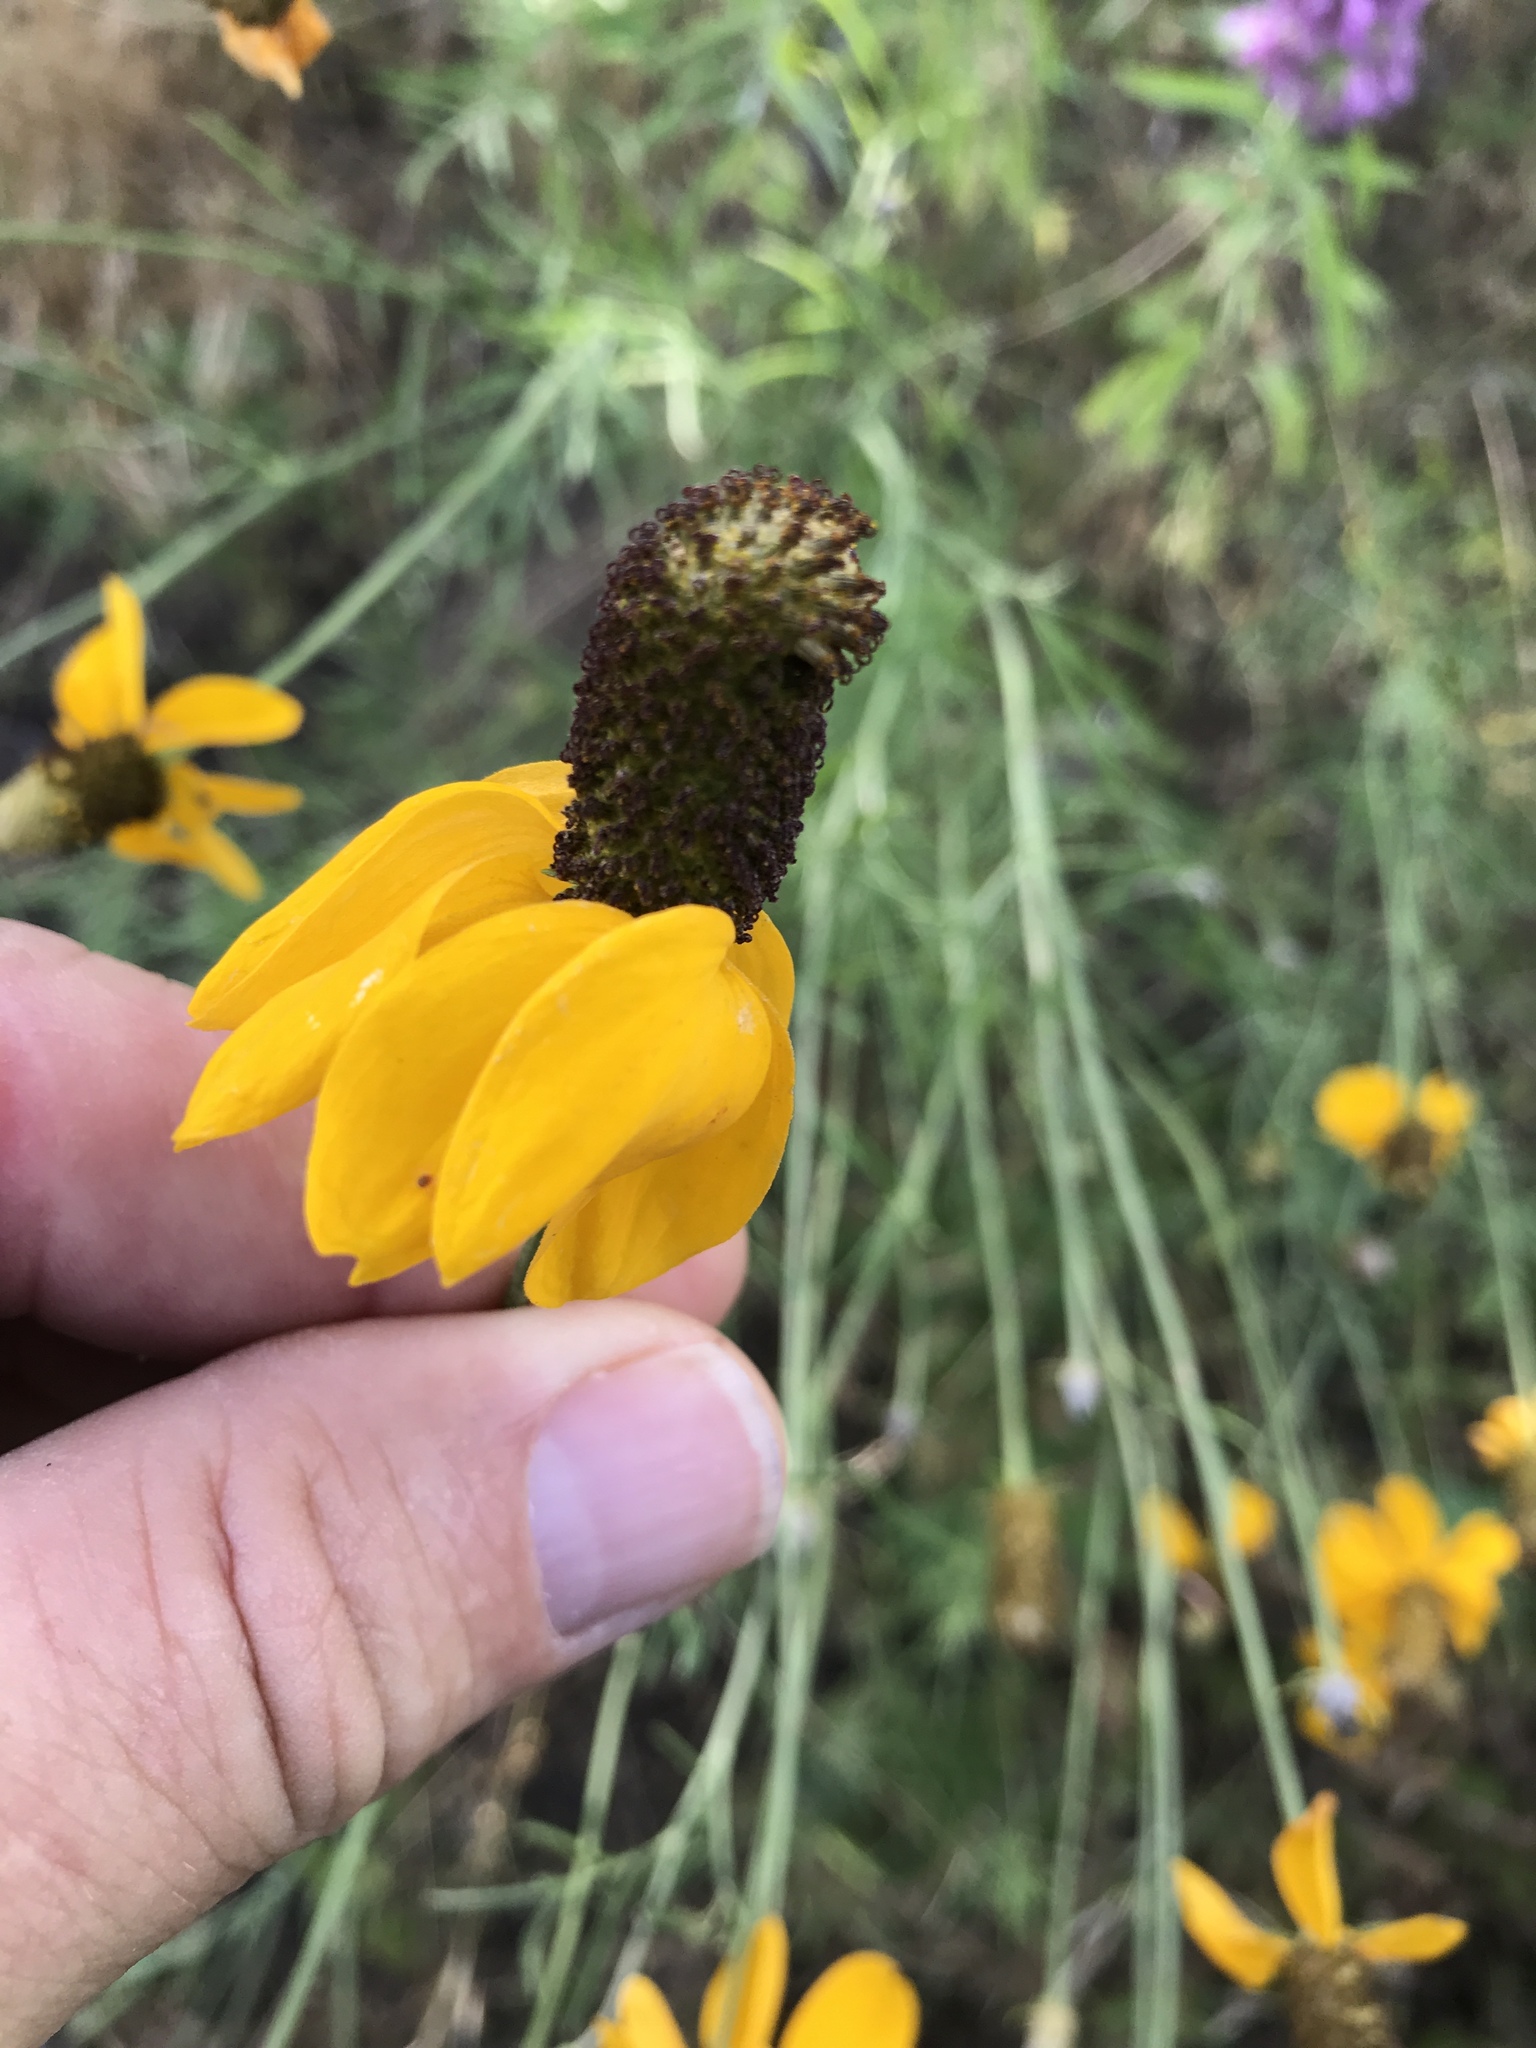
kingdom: Plantae
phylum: Tracheophyta
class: Magnoliopsida
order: Asterales
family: Asteraceae
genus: Ratibida
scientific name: Ratibida columnifera
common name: Prairie coneflower
